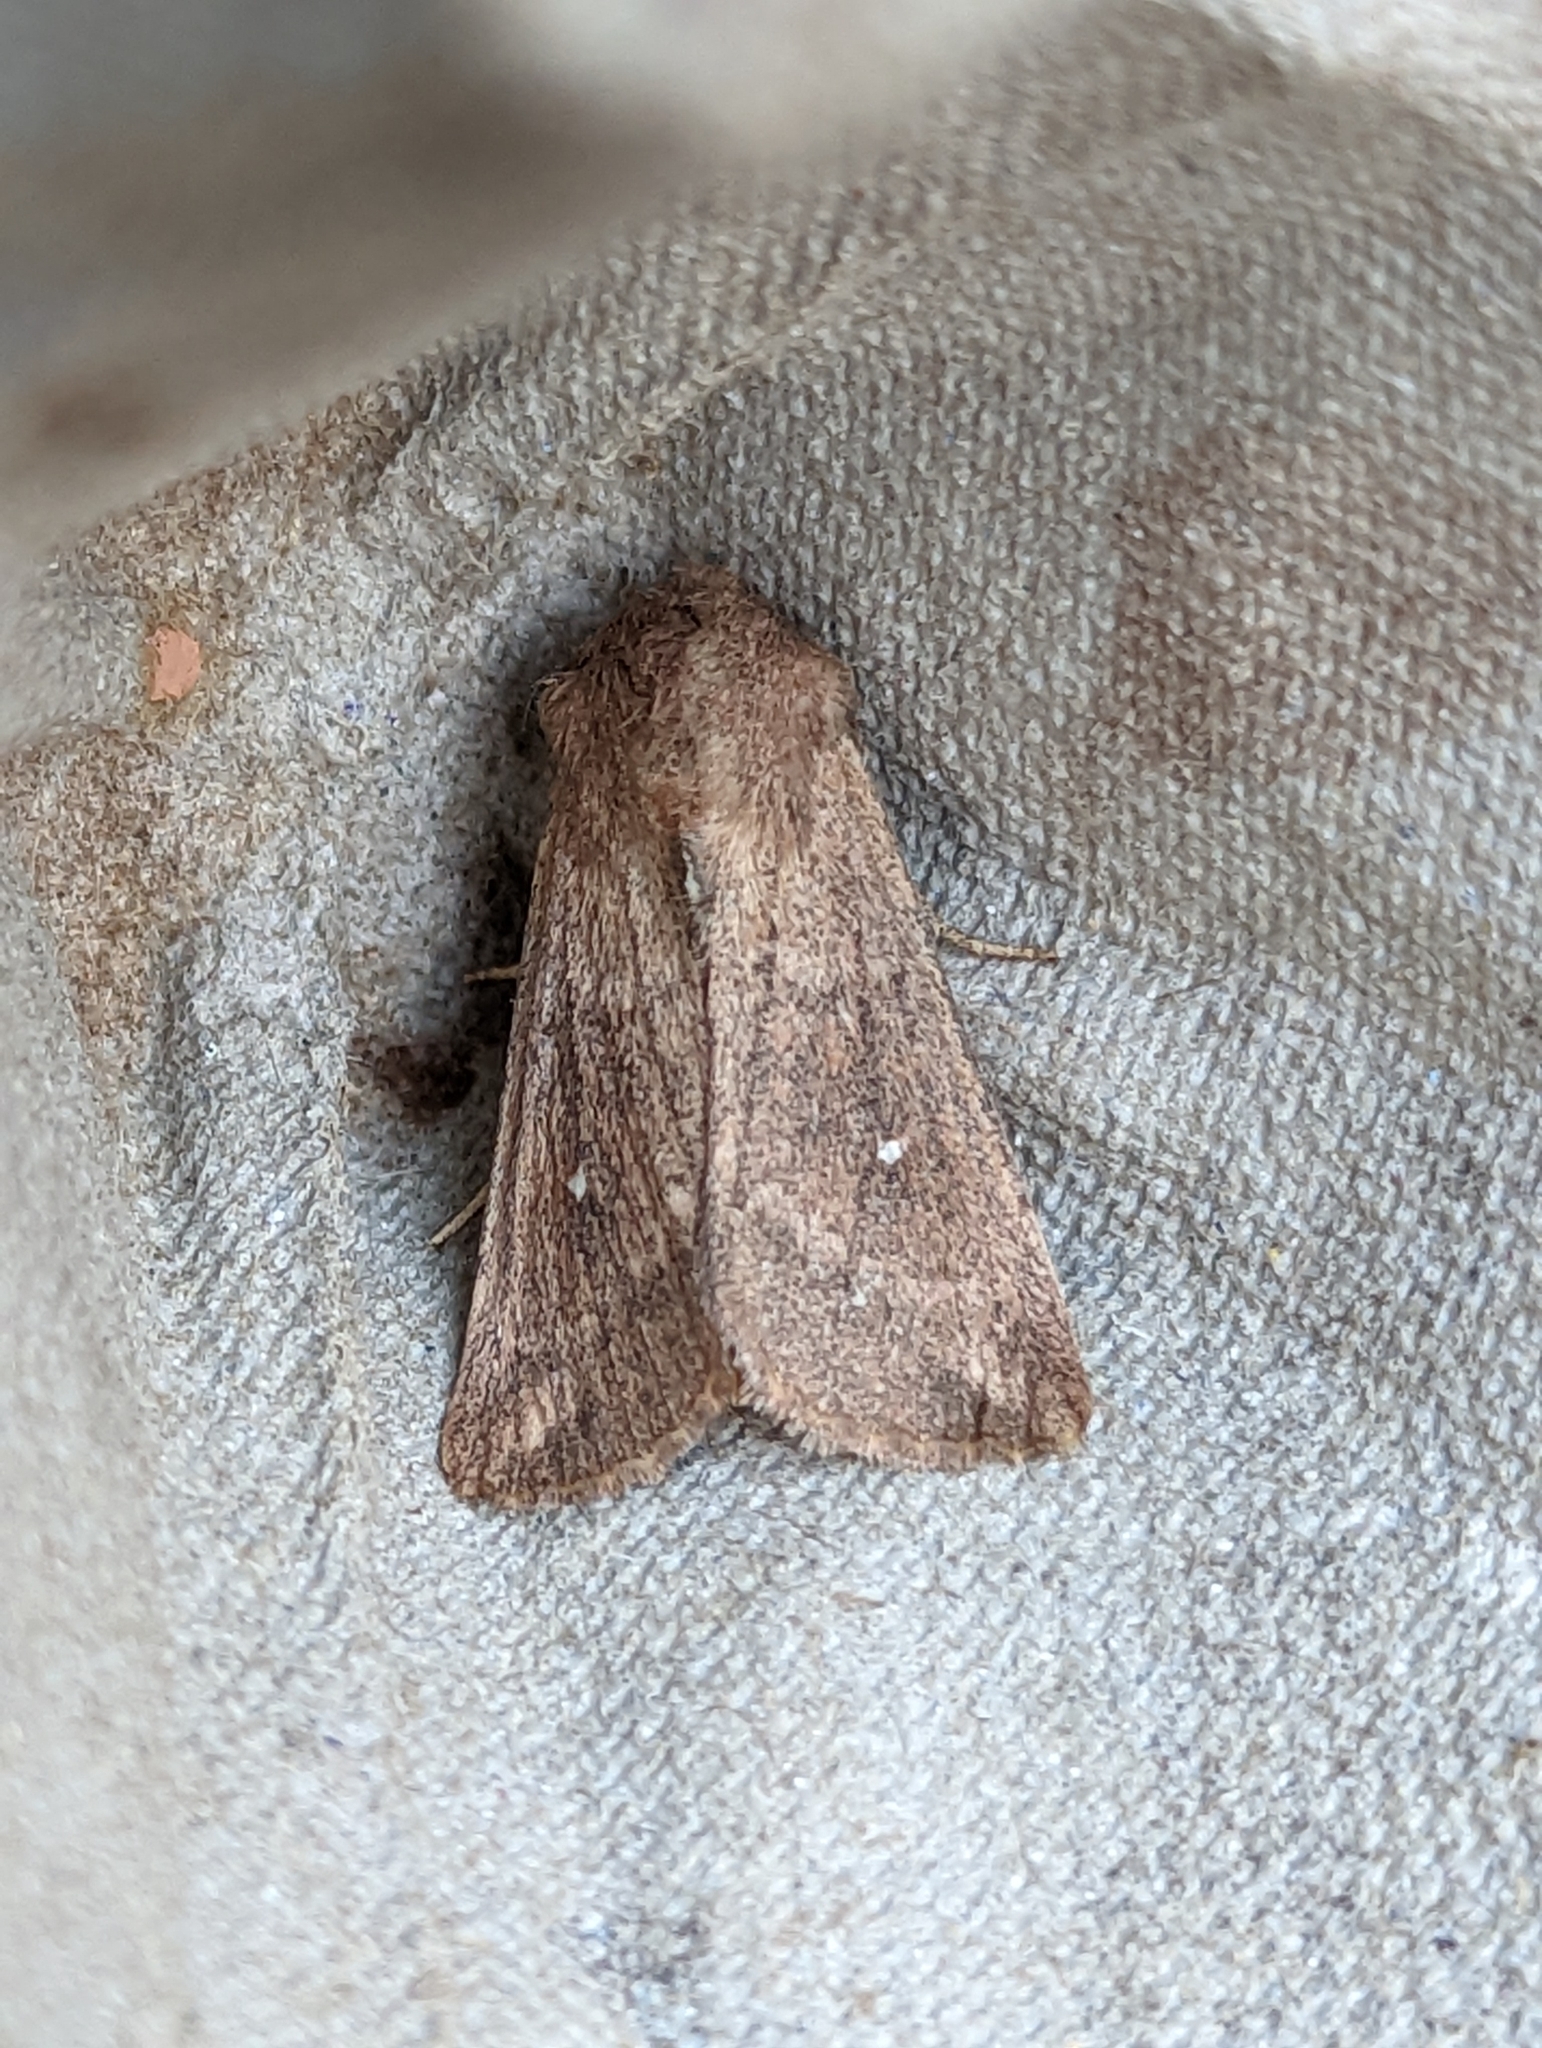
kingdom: Animalia
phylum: Arthropoda
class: Insecta
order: Lepidoptera
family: Noctuidae
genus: Mythimna
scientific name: Mythimna albipuncta
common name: White-point
